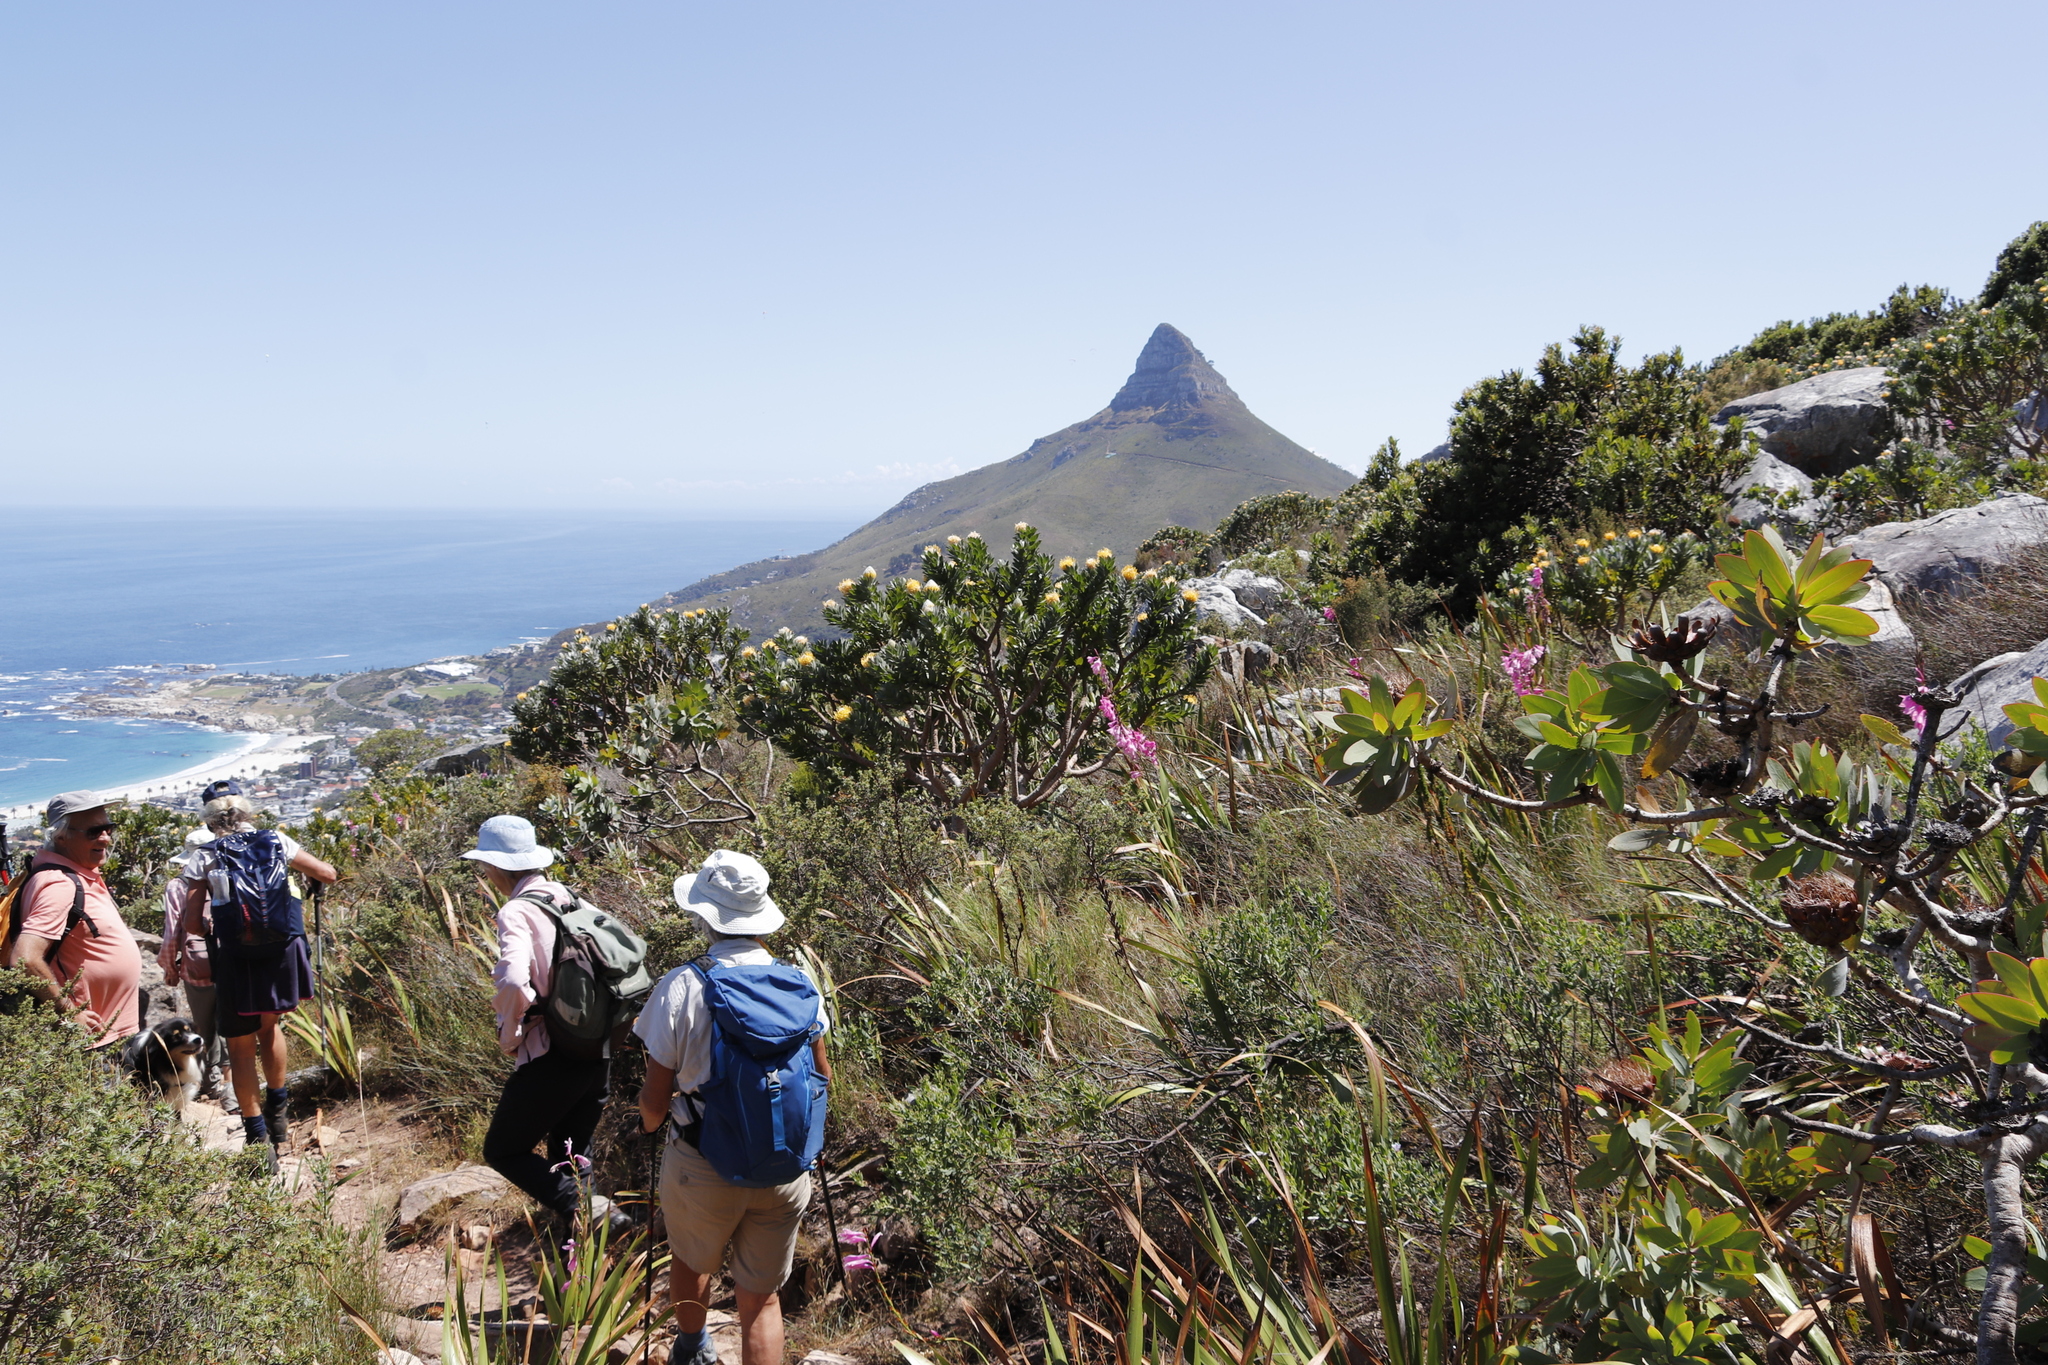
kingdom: Plantae
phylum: Tracheophyta
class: Magnoliopsida
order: Proteales
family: Proteaceae
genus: Leucospermum
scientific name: Leucospermum conocarpodendron
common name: Tree pincushion
